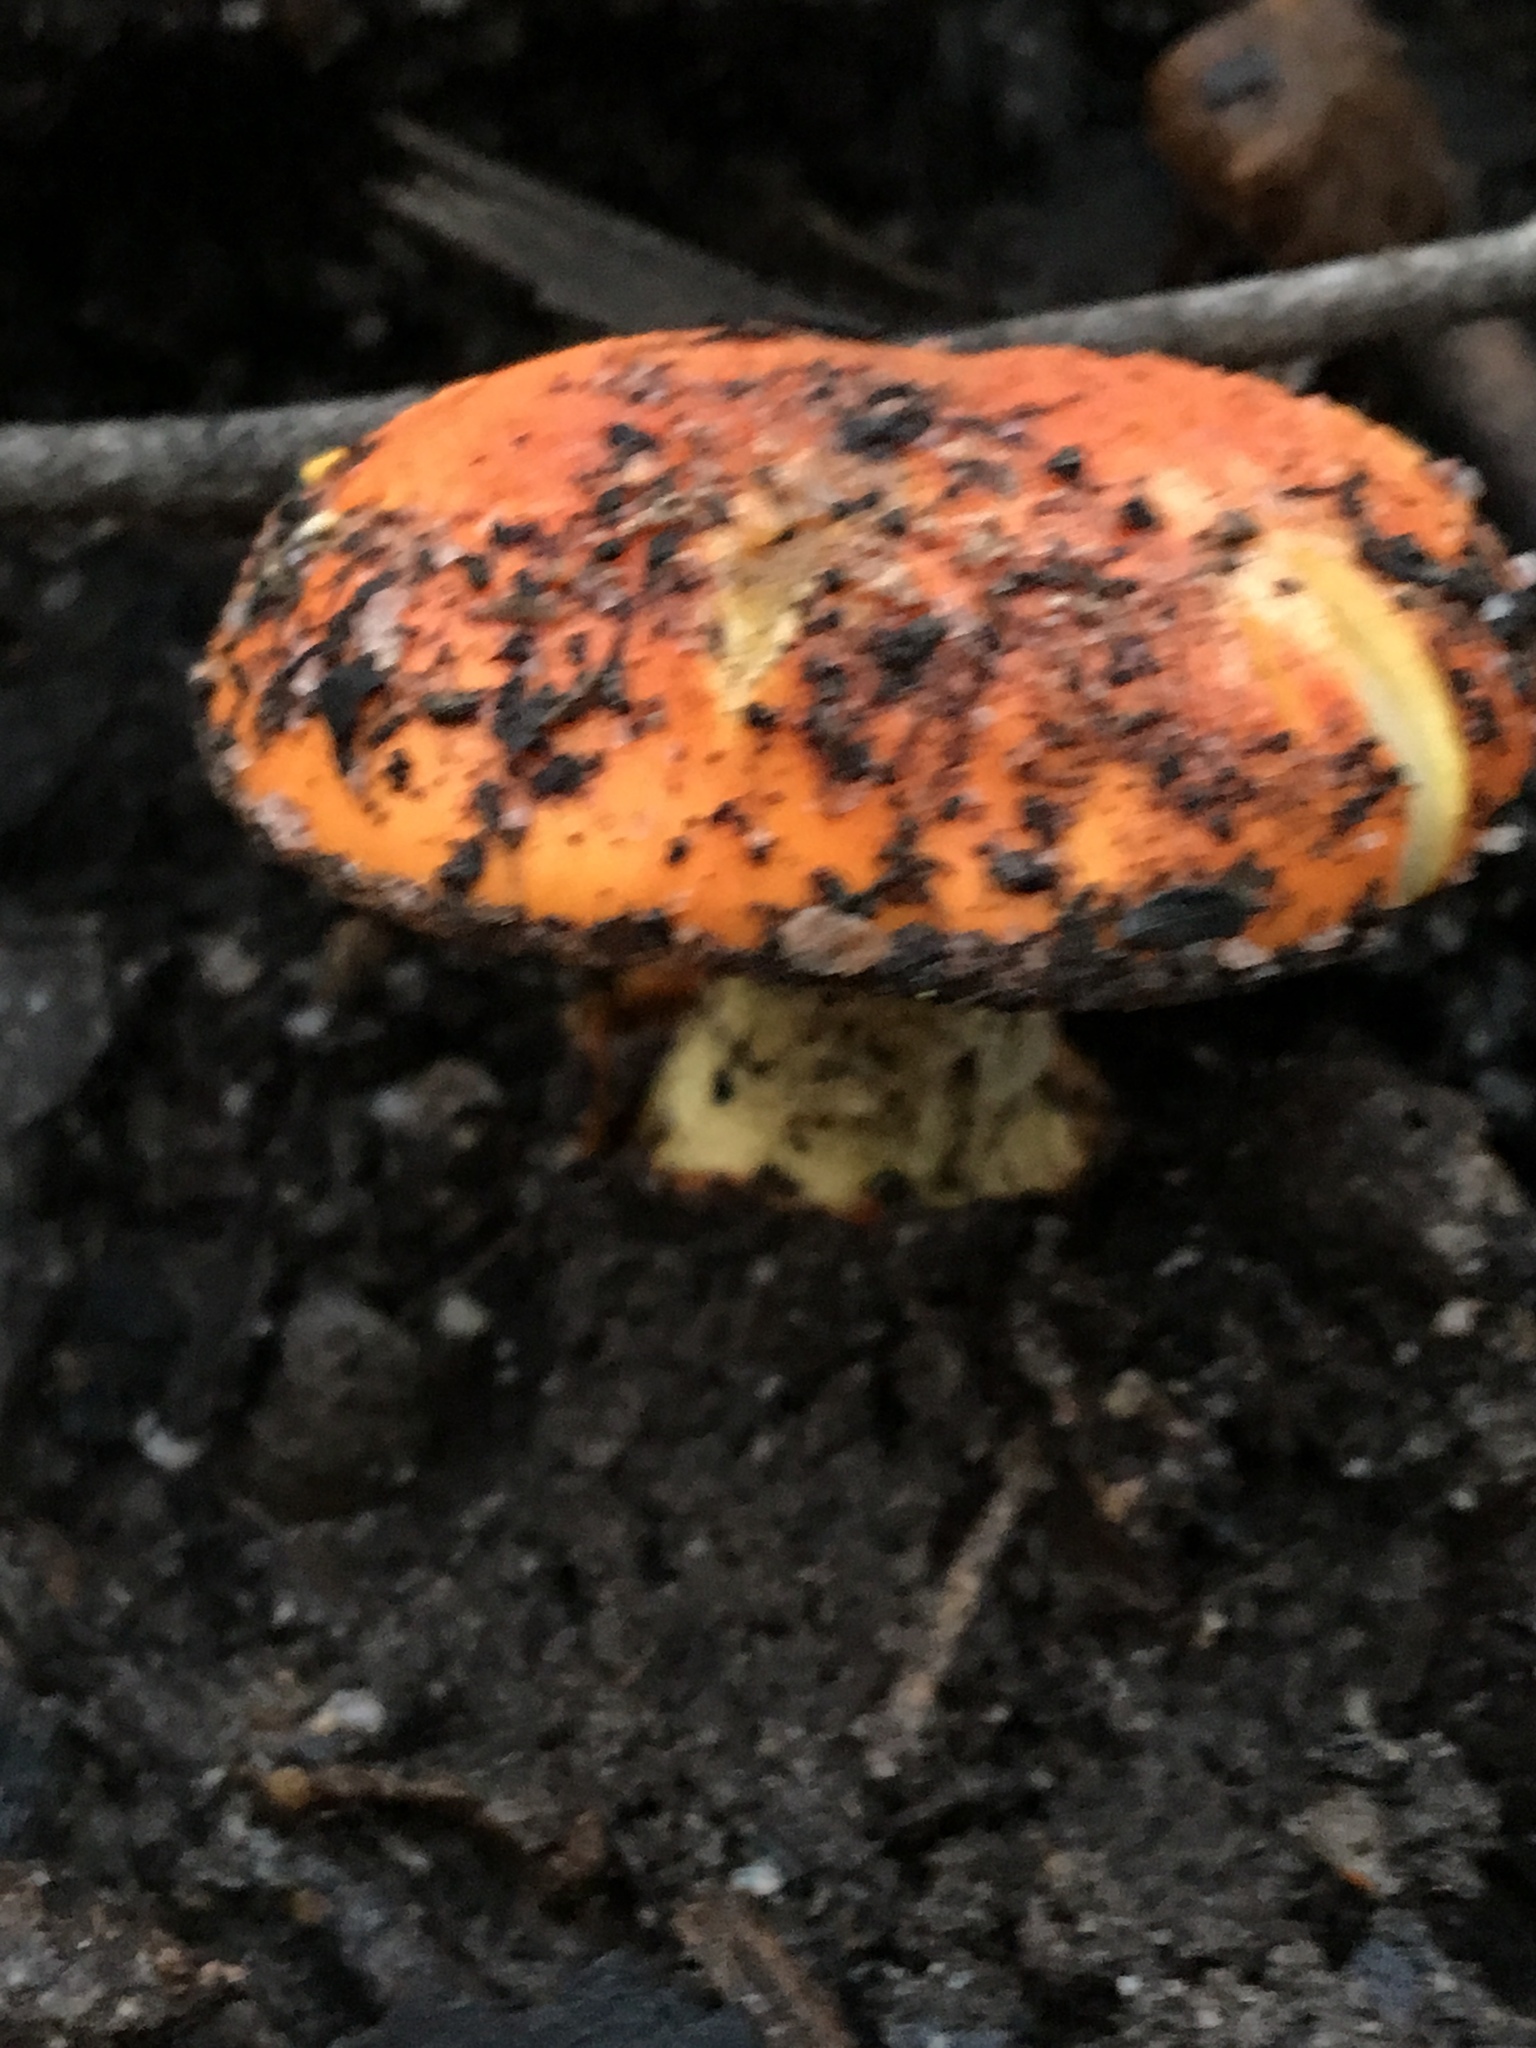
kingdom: Fungi
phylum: Basidiomycota
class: Agaricomycetes
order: Agaricales
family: Amanitaceae
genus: Amanita
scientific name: Amanita xanthocephala
